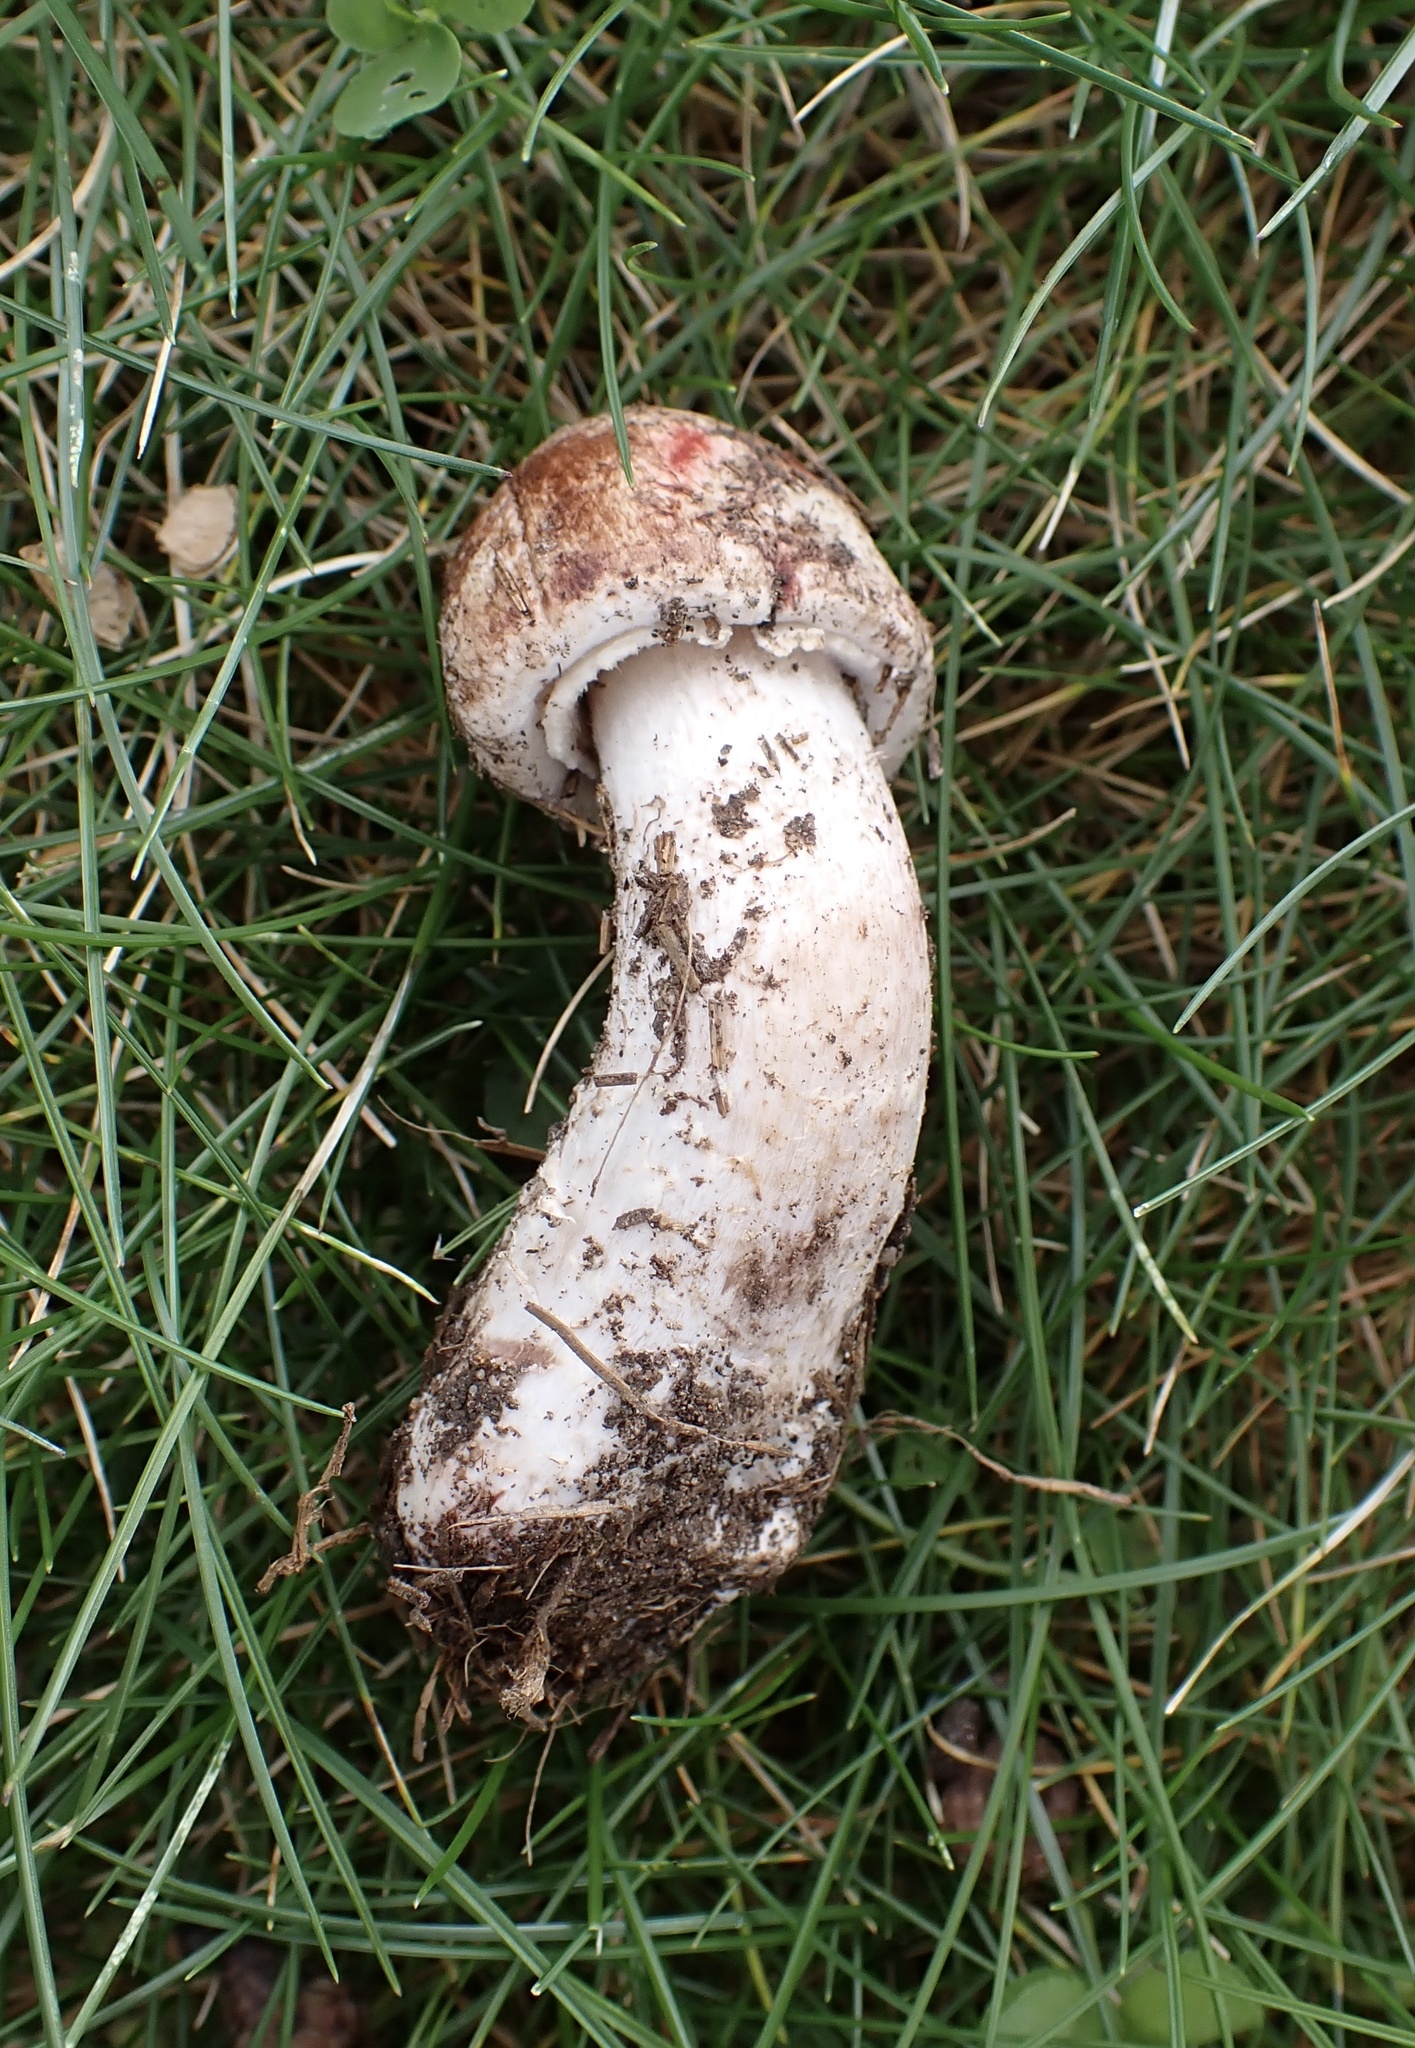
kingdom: Fungi
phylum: Basidiomycota
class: Agaricomycetes
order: Agaricales
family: Agaricaceae
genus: Agaricus
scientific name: Agaricus sylvaticus
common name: Blushing wood mushroom
